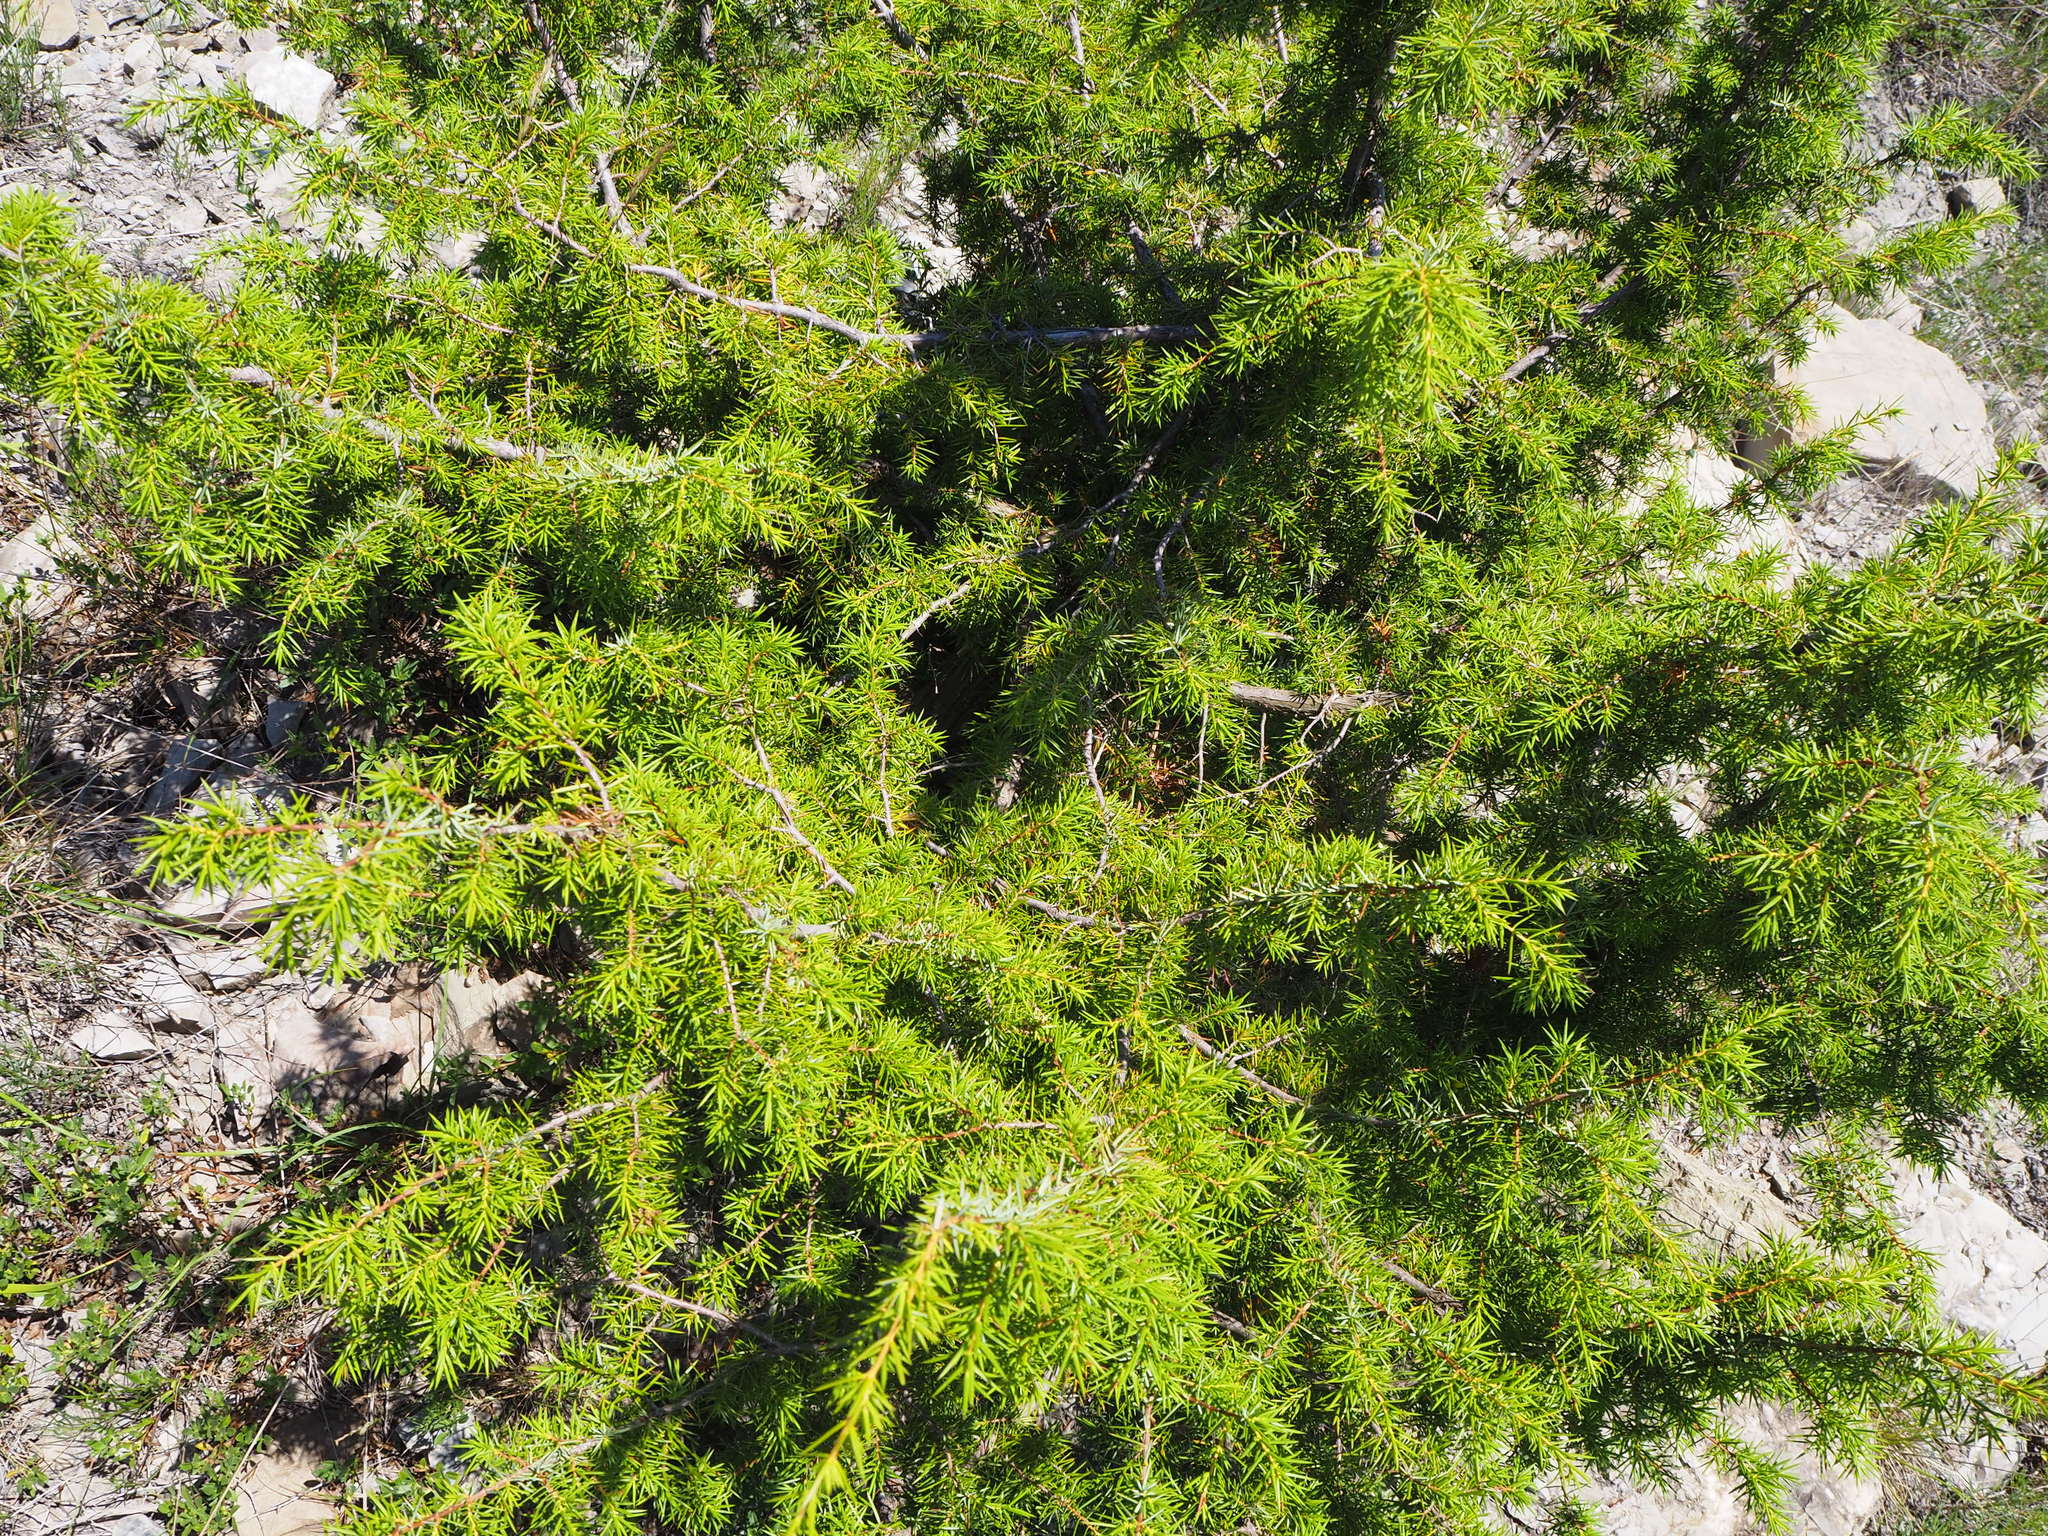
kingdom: Plantae
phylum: Tracheophyta
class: Pinopsida
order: Pinales
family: Cupressaceae
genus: Juniperus
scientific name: Juniperus communis
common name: Common juniper
